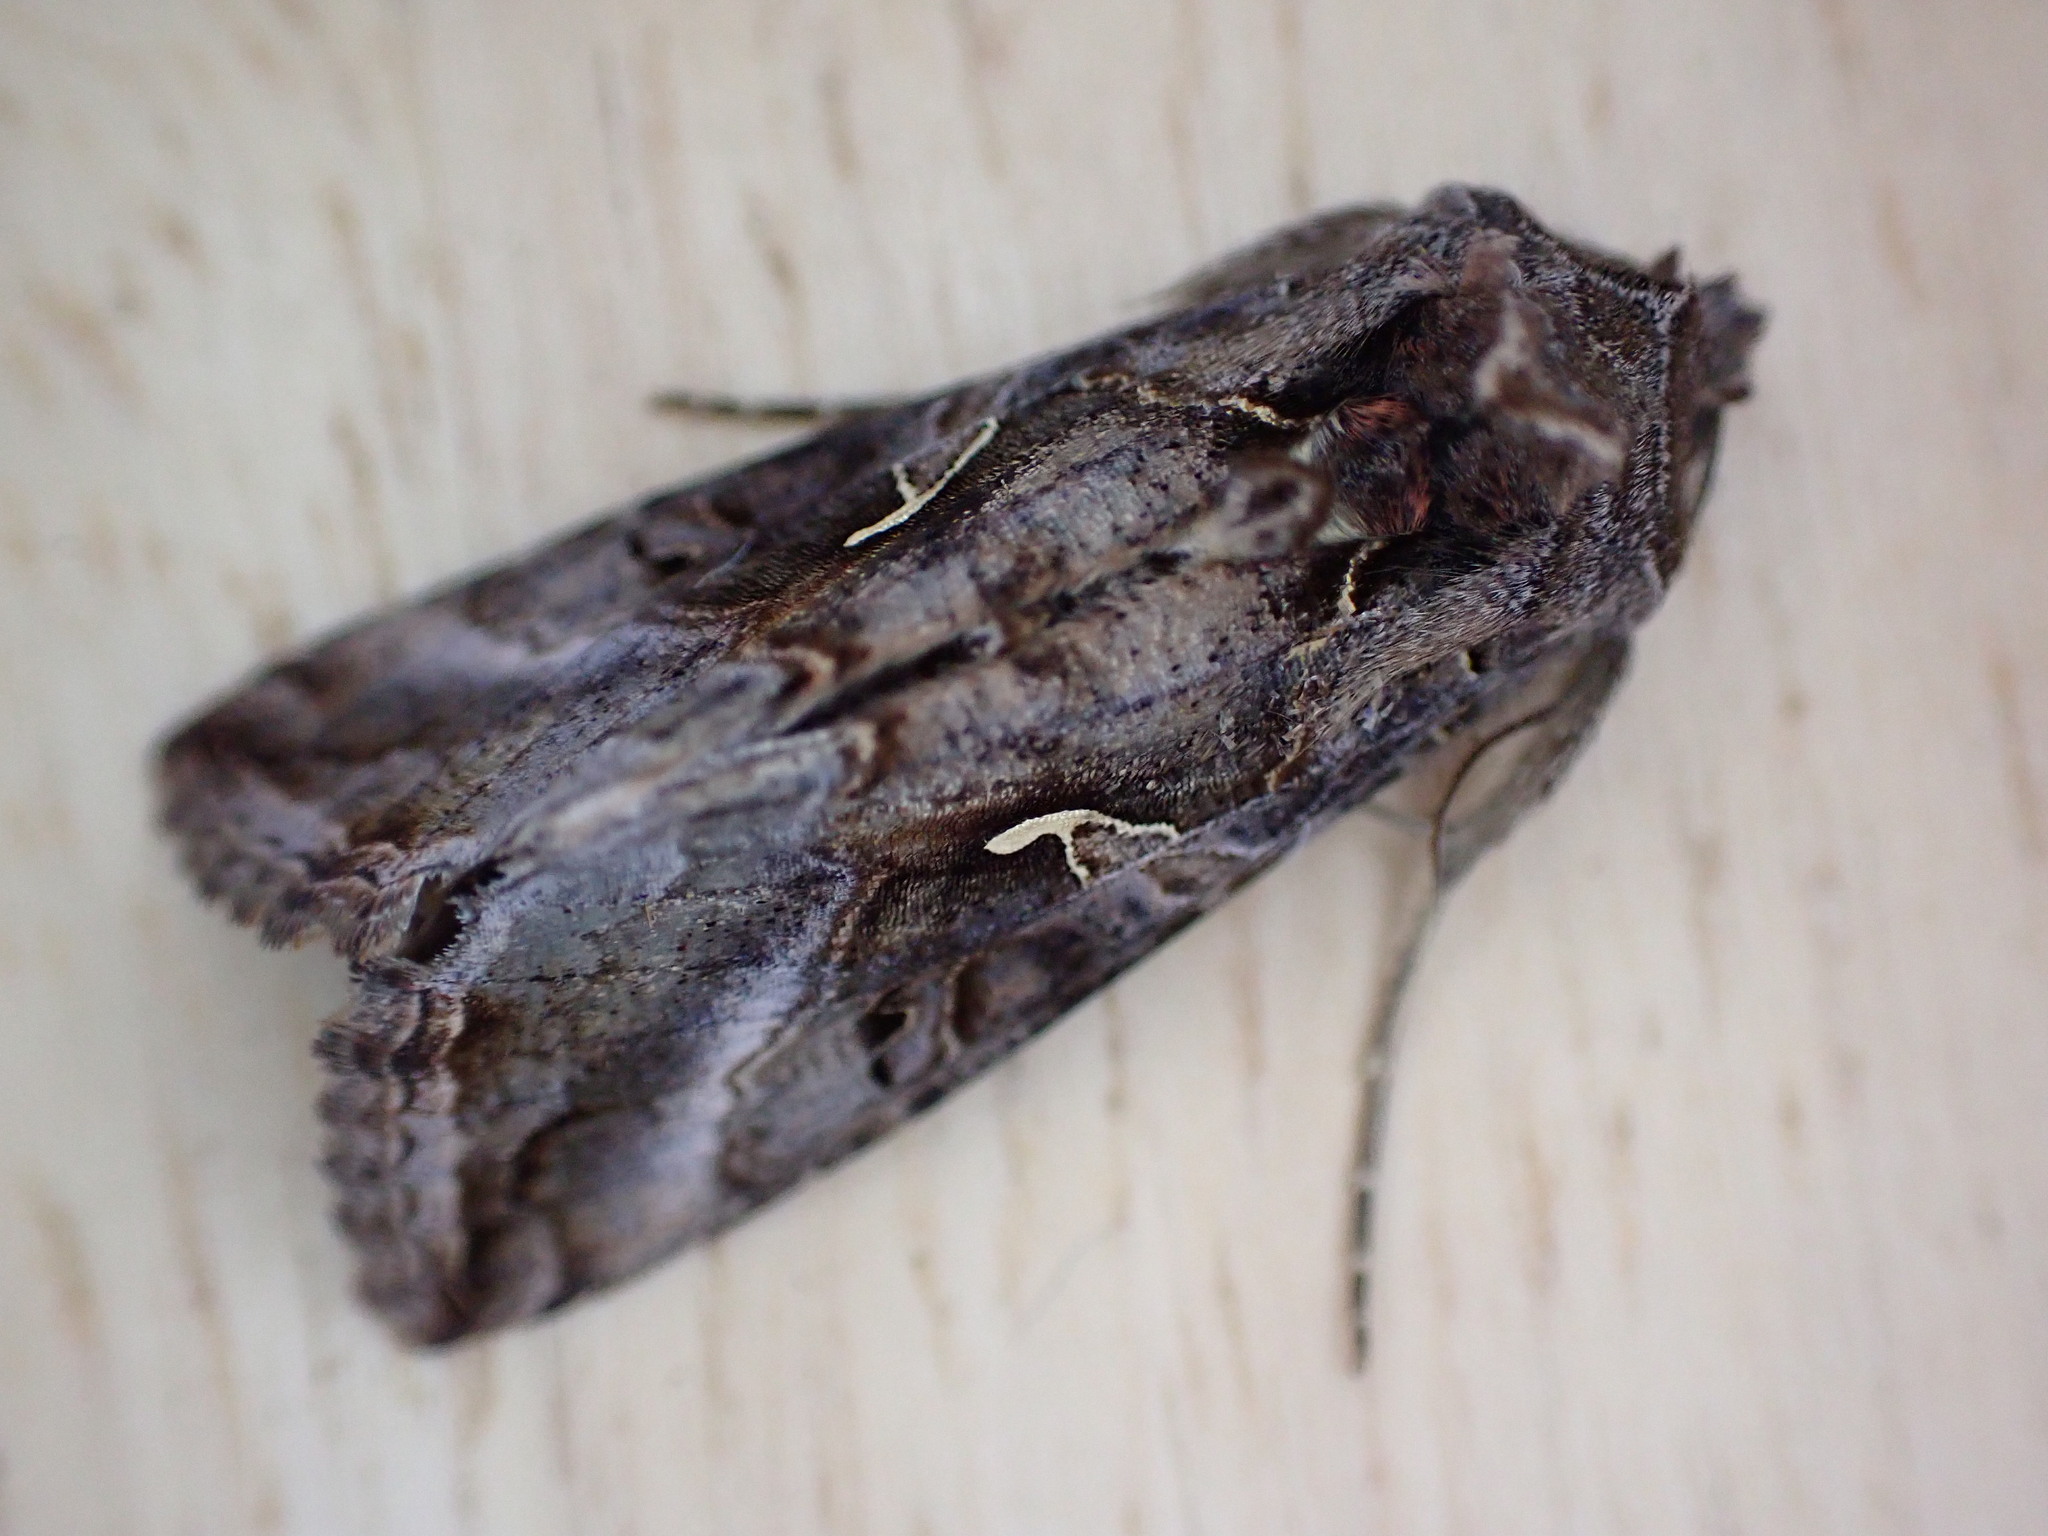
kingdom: Animalia
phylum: Arthropoda
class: Insecta
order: Lepidoptera
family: Noctuidae
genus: Autographa
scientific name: Autographa gamma
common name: Silver y
